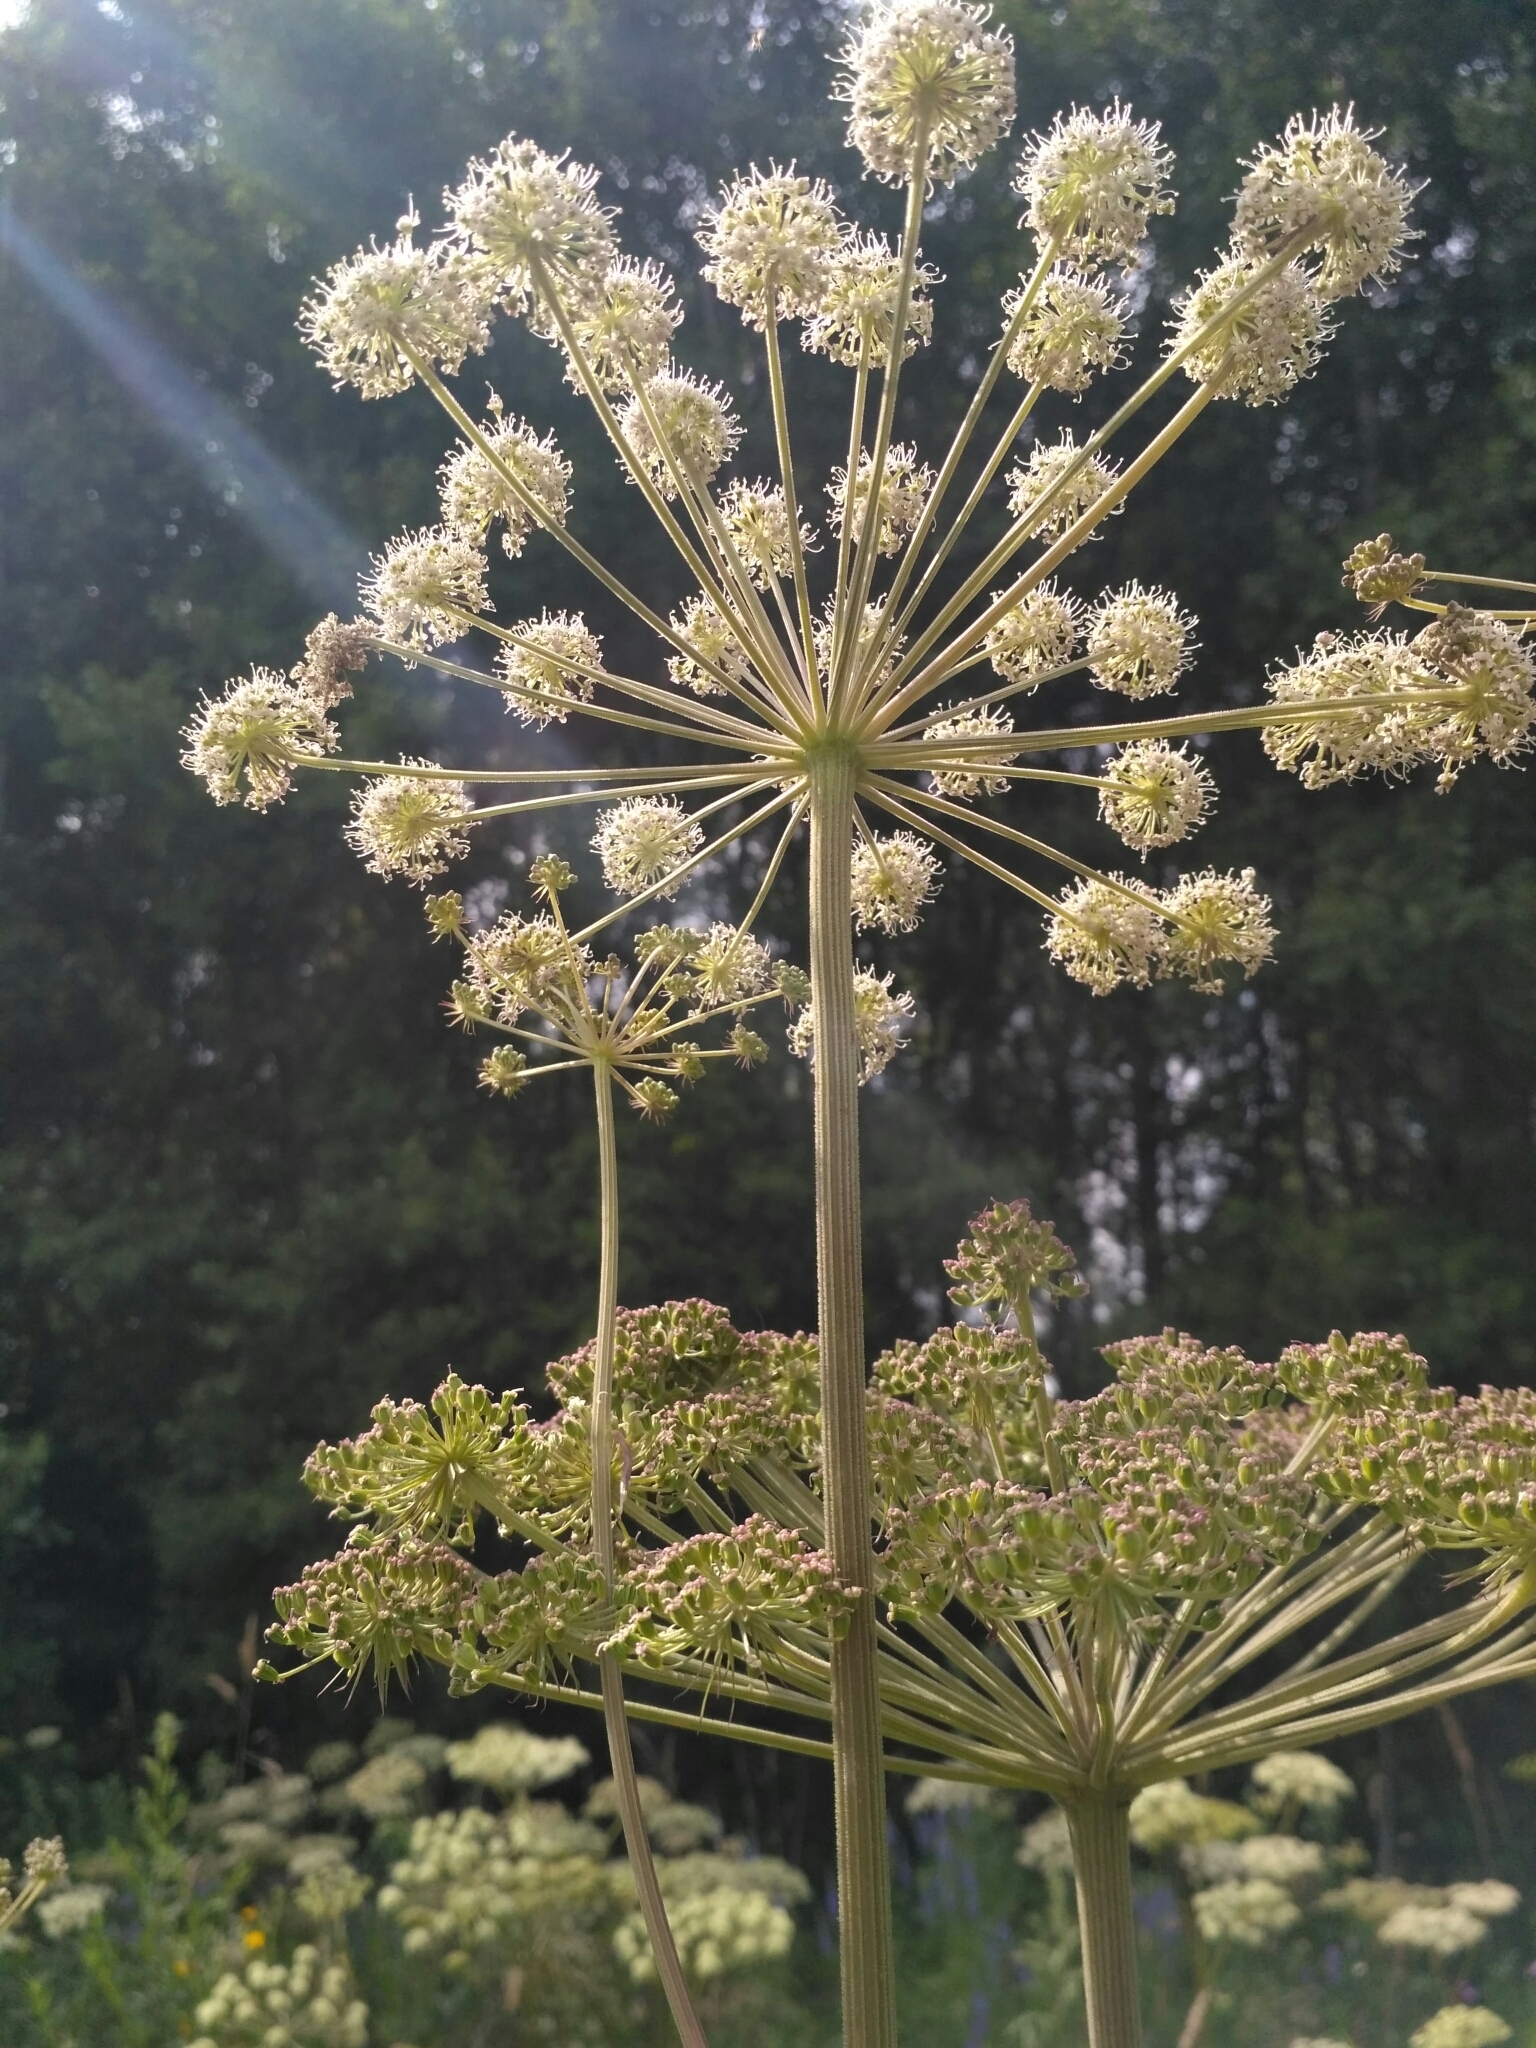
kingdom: Plantae
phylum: Tracheophyta
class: Magnoliopsida
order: Apiales
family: Apiaceae
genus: Angelica
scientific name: Angelica sylvestris
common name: Wild angelica
